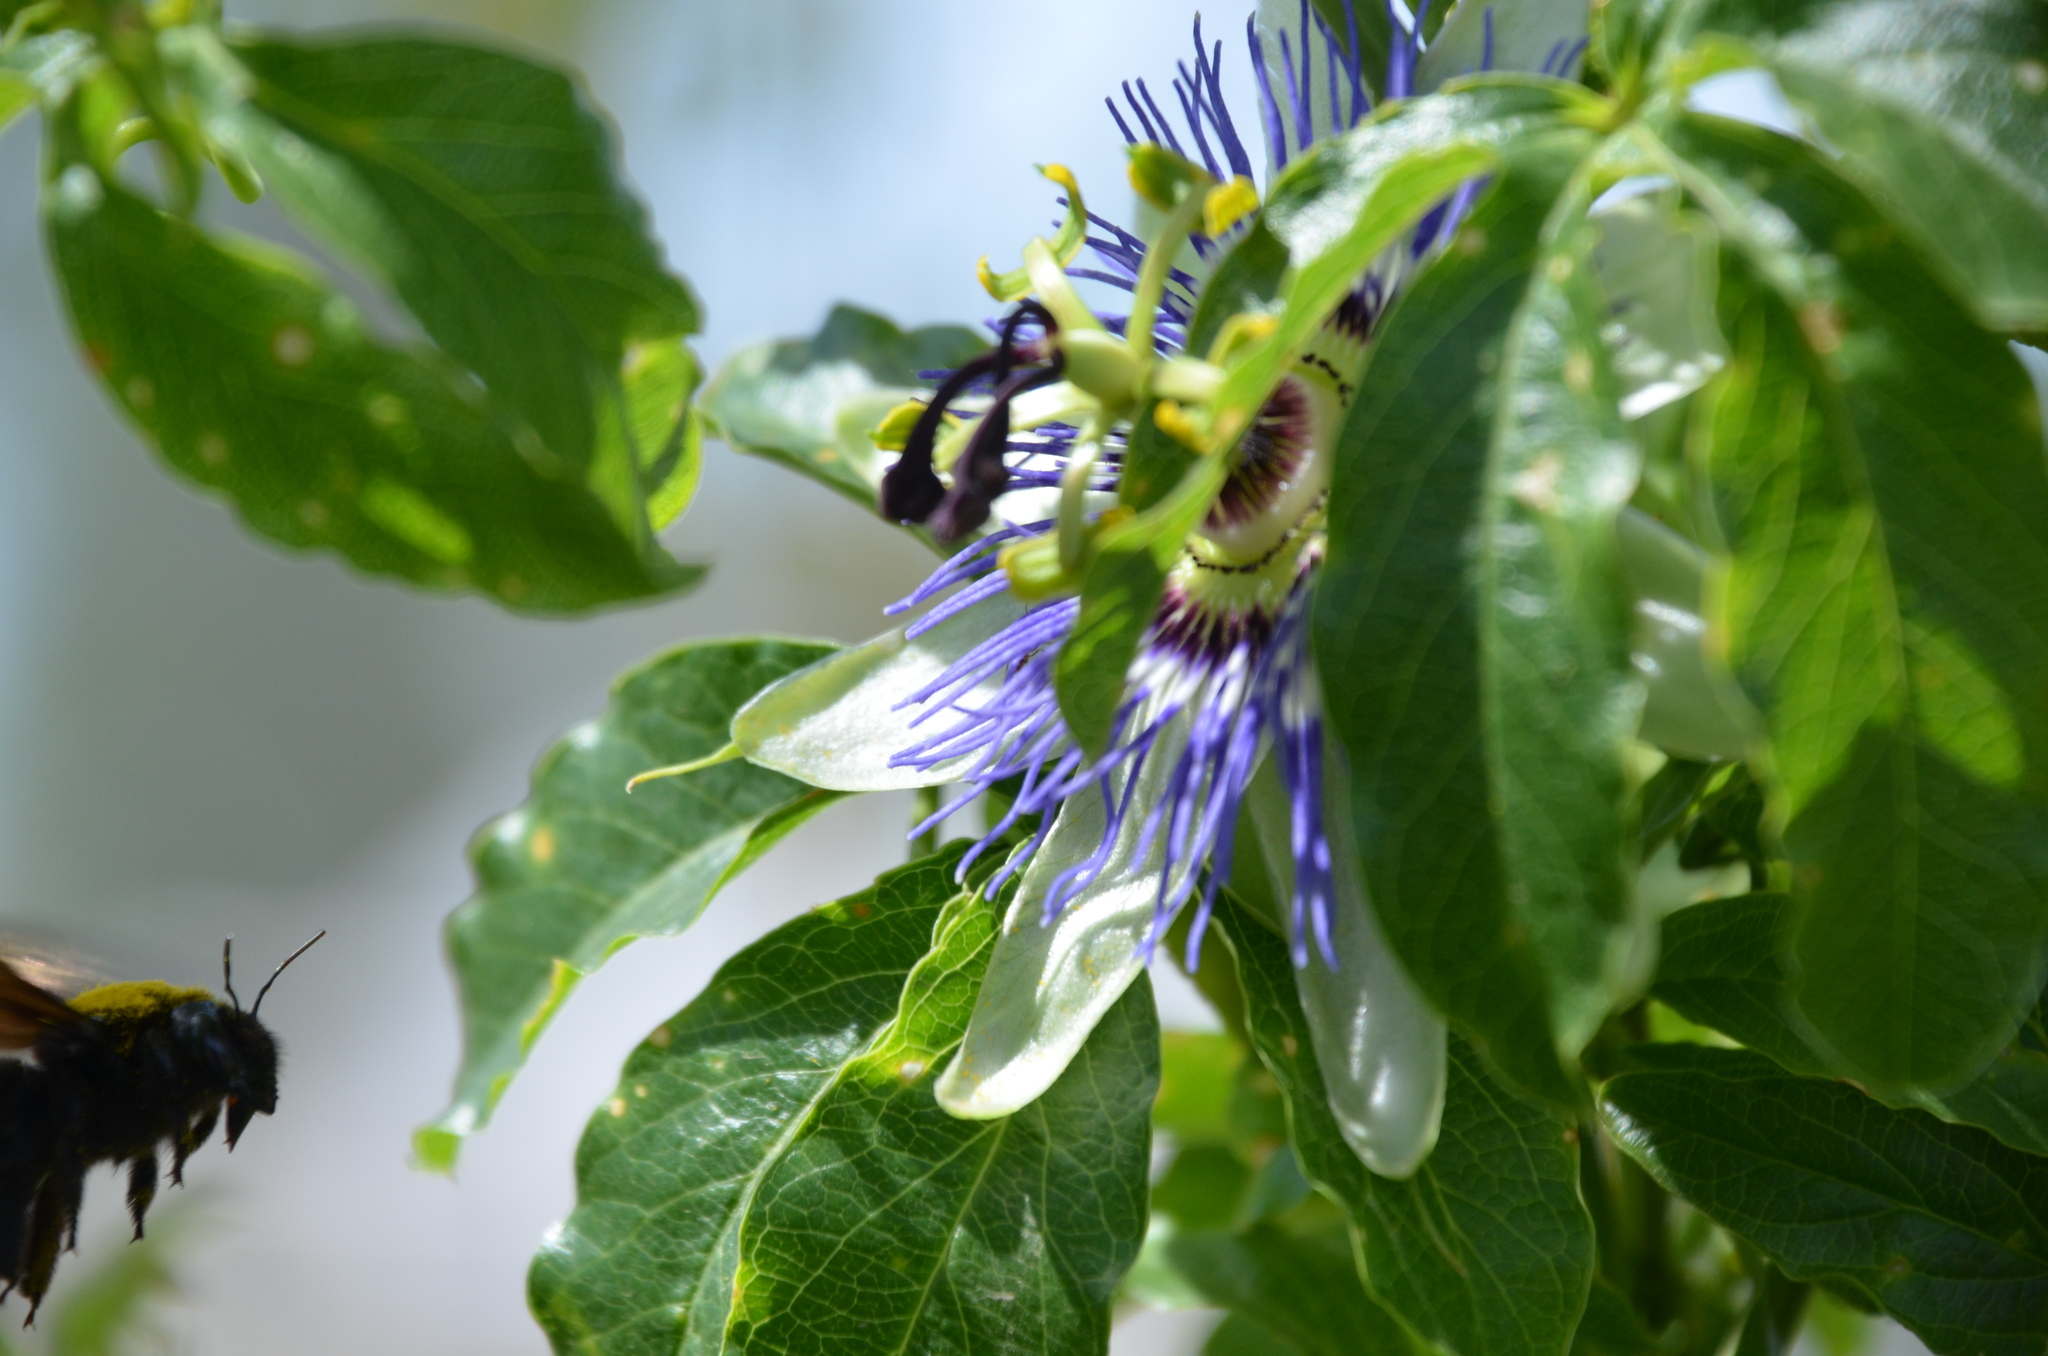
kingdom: Animalia
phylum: Arthropoda
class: Insecta
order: Hymenoptera
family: Apidae
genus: Xylocopa
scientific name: Xylocopa augusti
